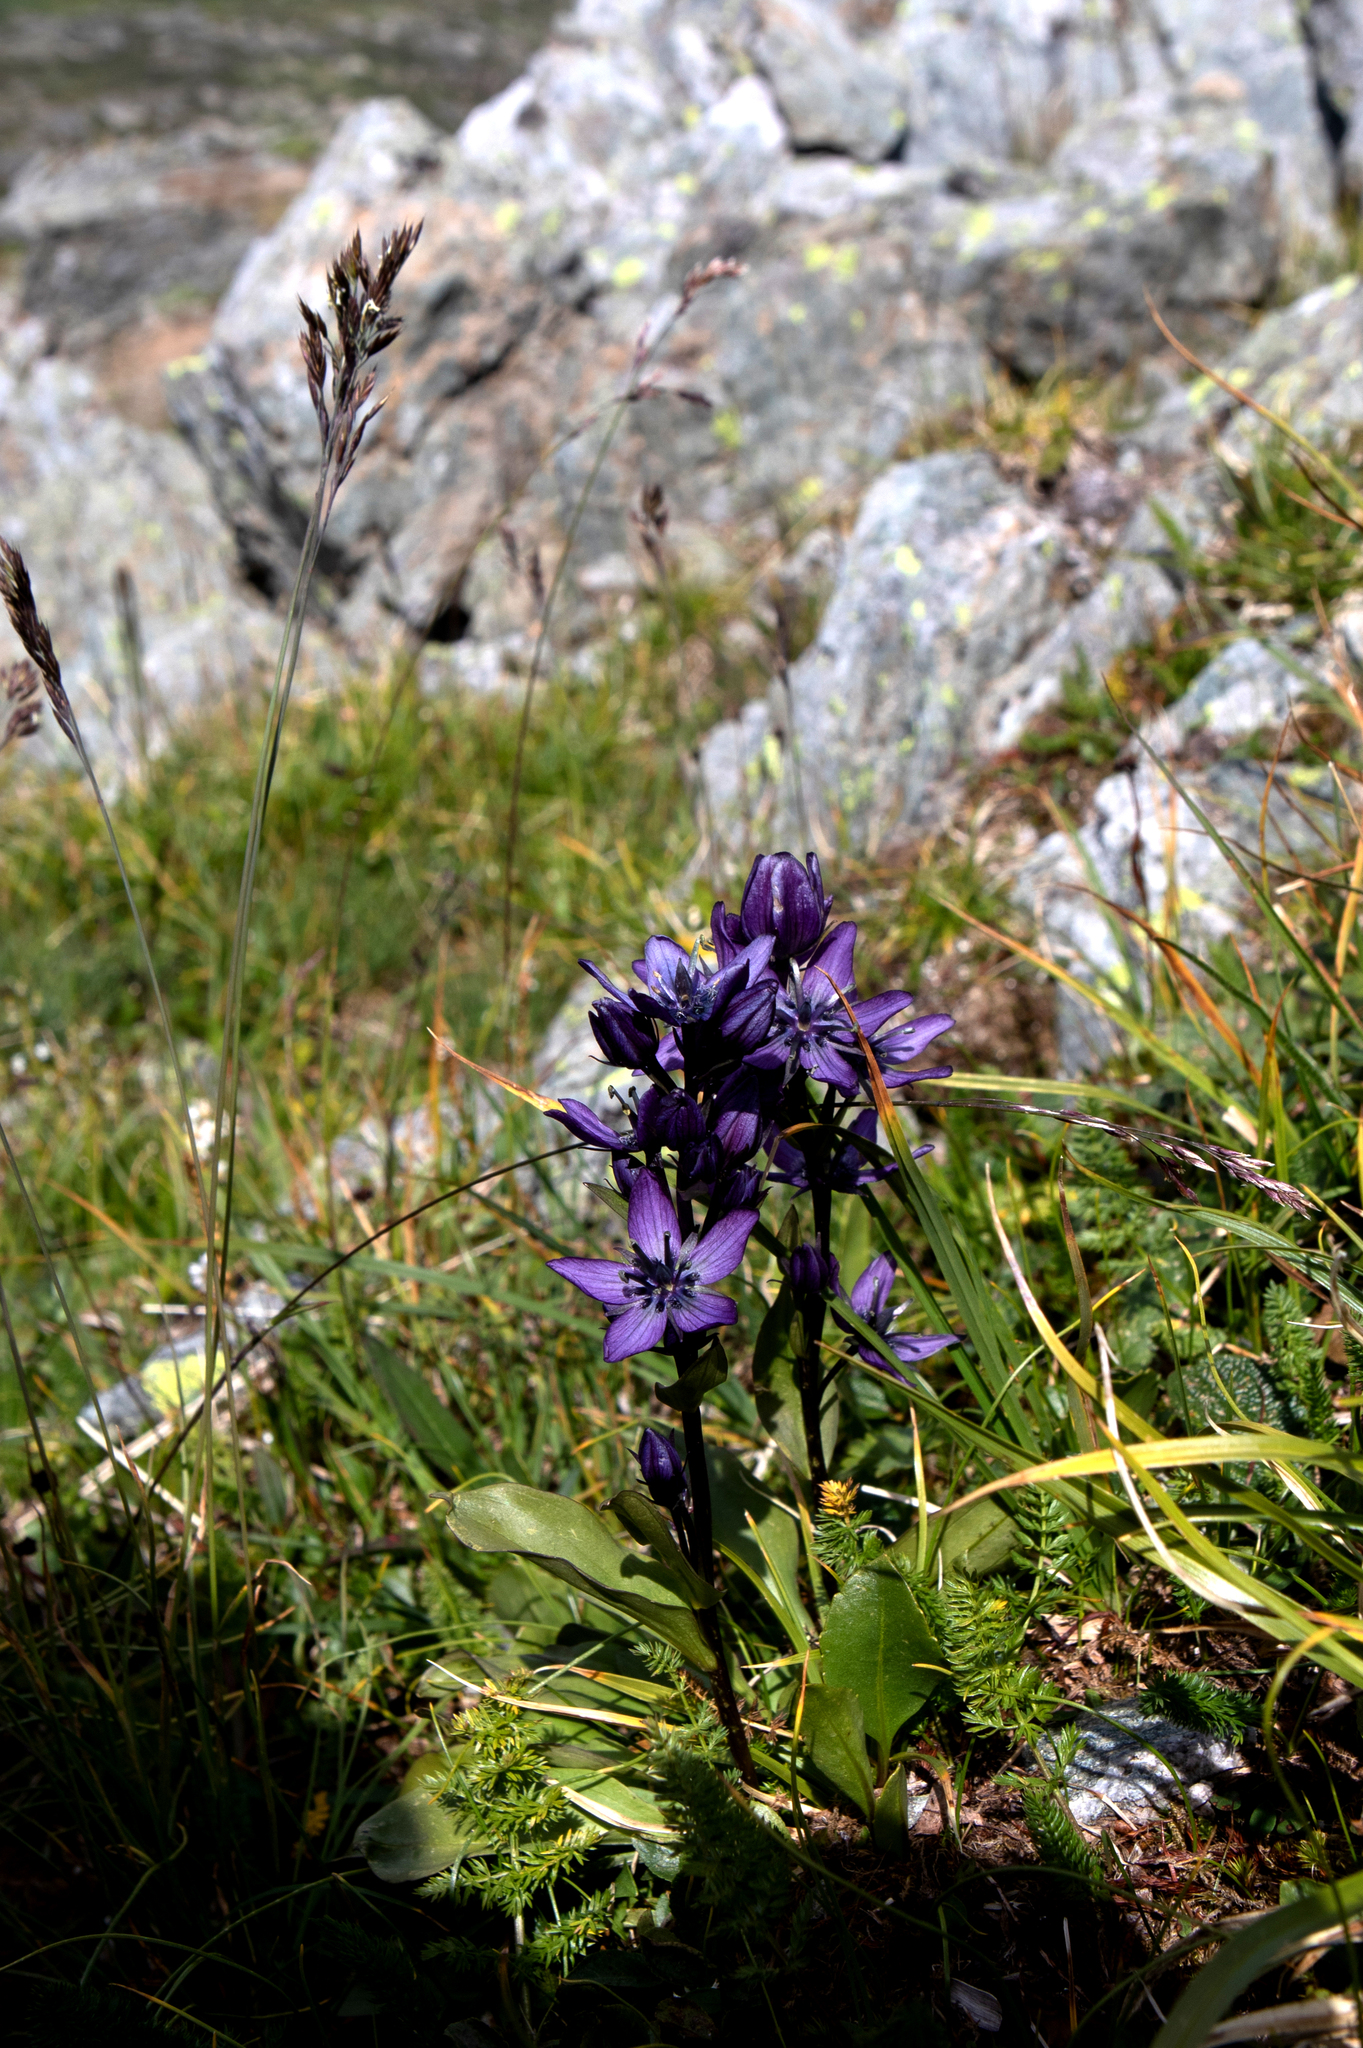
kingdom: Plantae
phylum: Tracheophyta
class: Magnoliopsida
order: Gentianales
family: Gentianaceae
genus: Swertia
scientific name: Swertia obtusa
